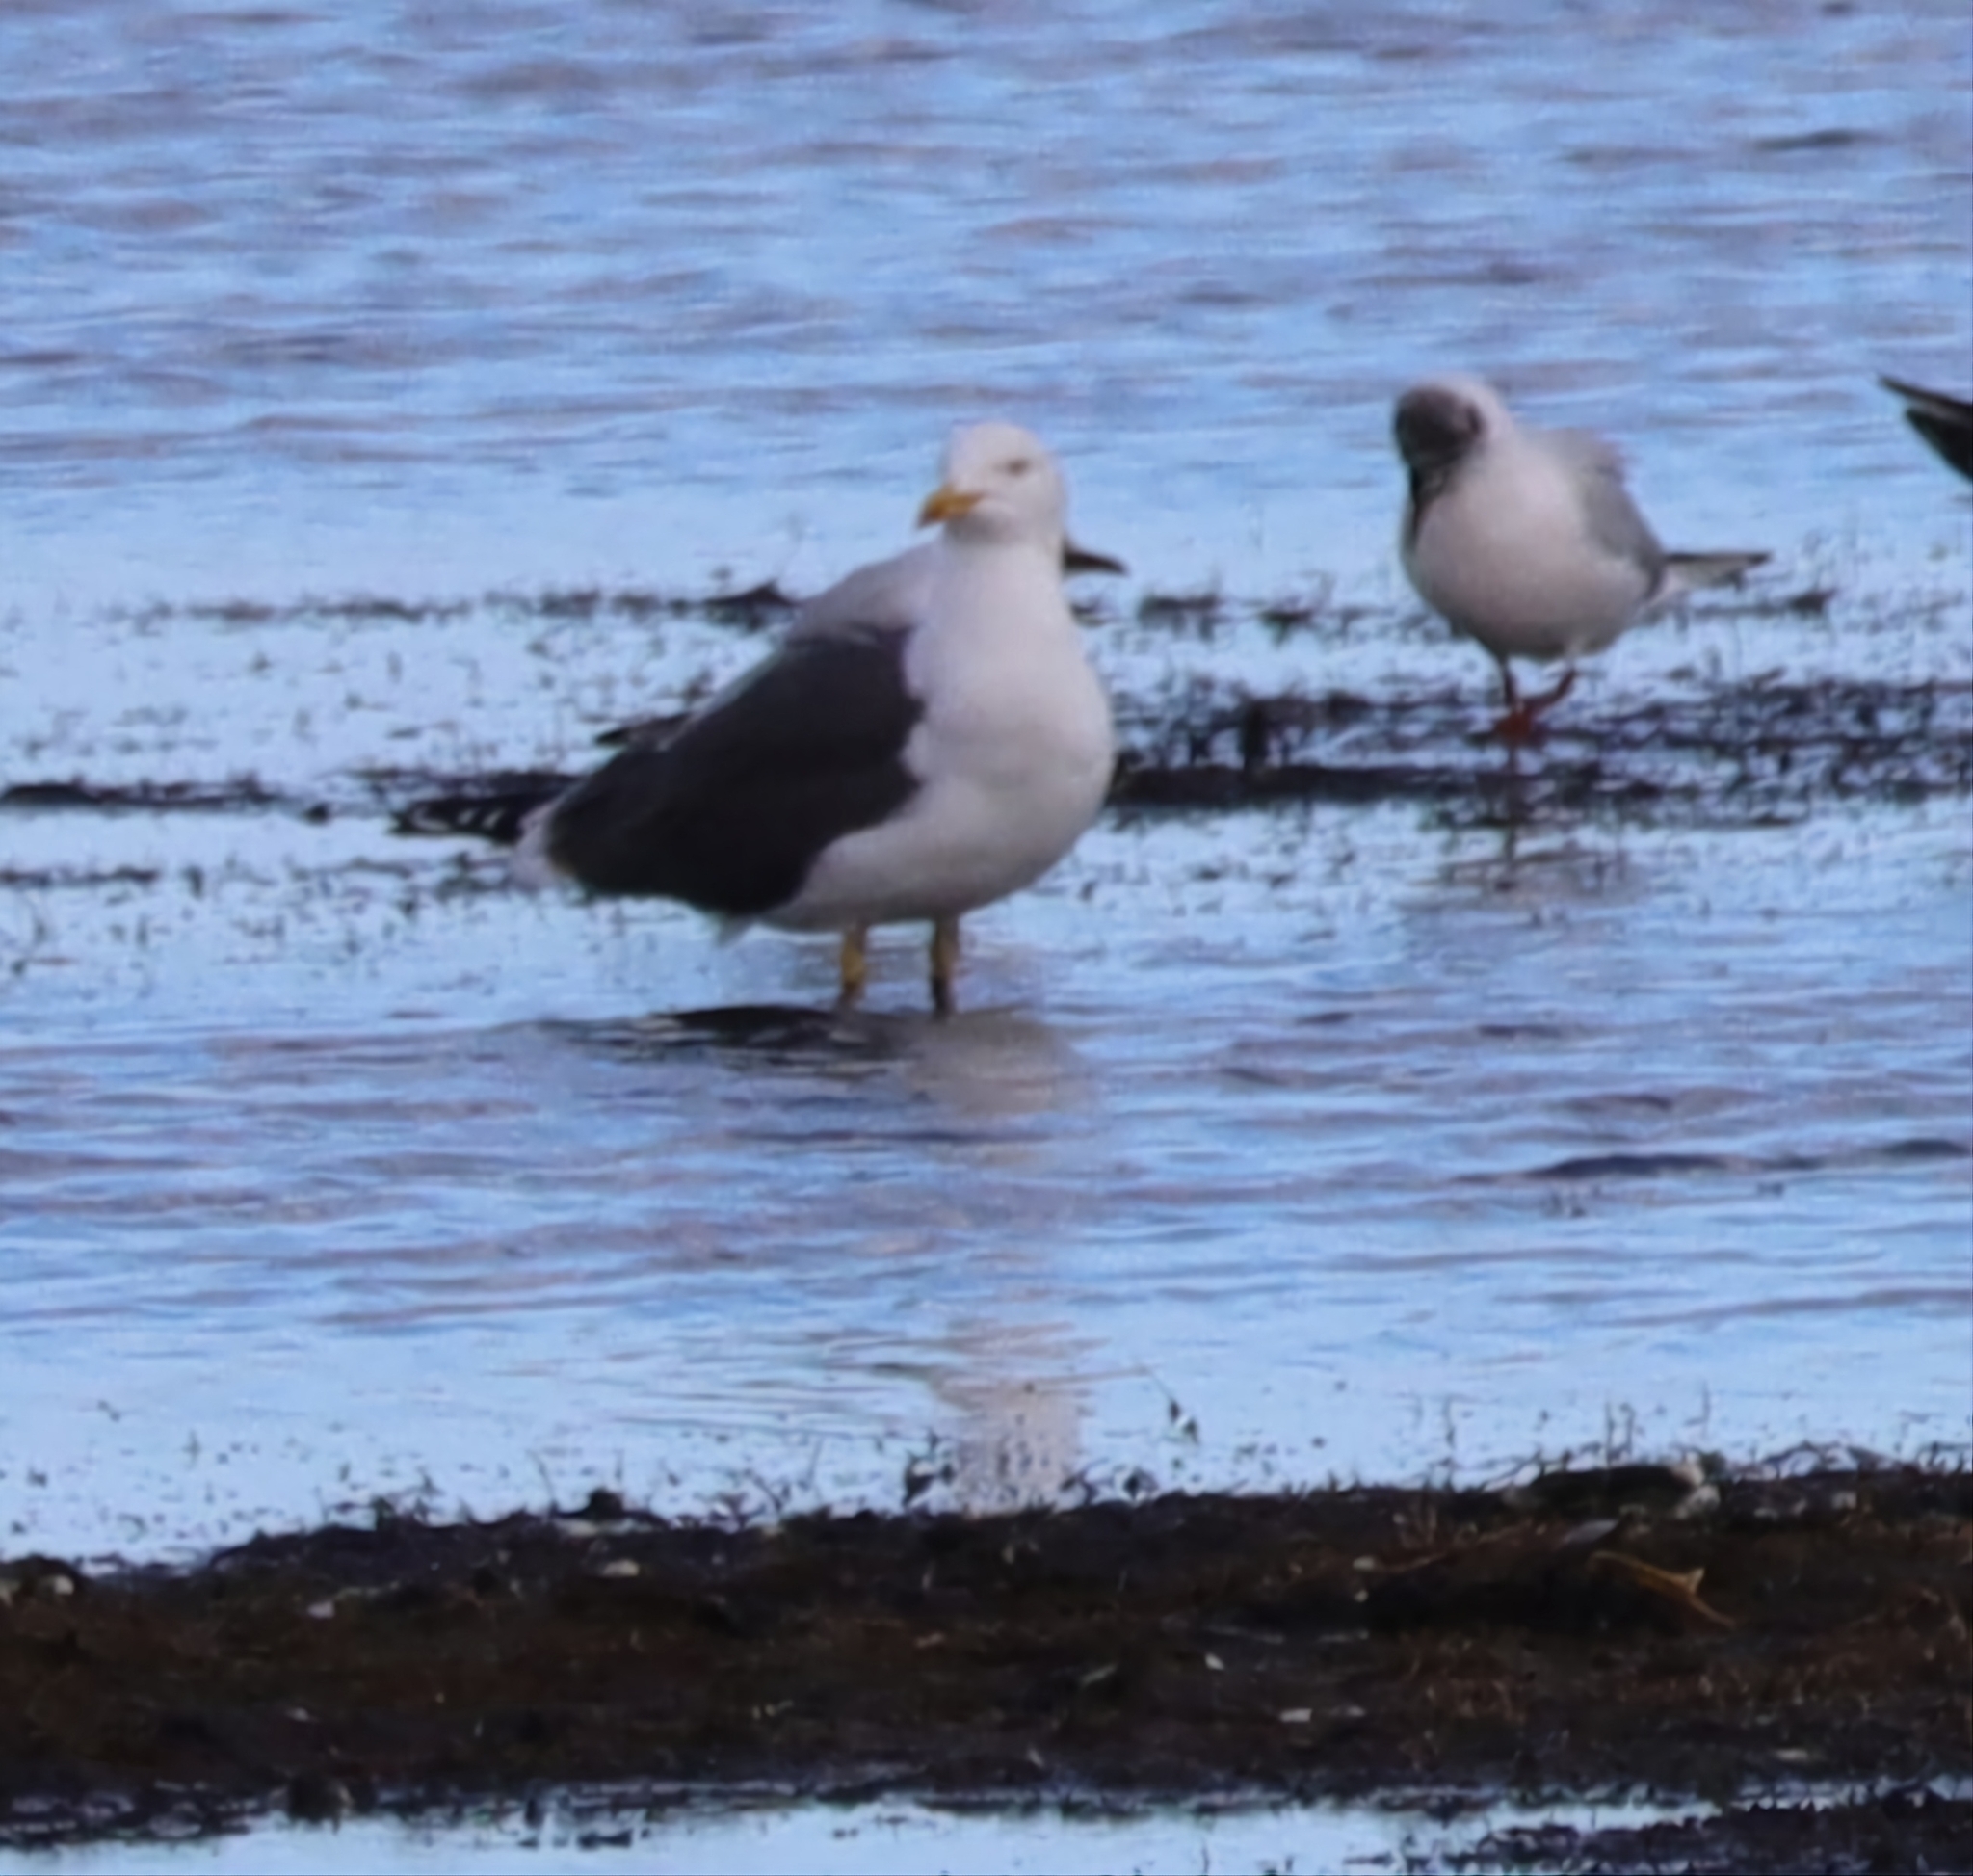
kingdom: Animalia
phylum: Chordata
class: Aves
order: Charadriiformes
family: Laridae
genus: Larus
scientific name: Larus fuscus
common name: Lesser black-backed gull
